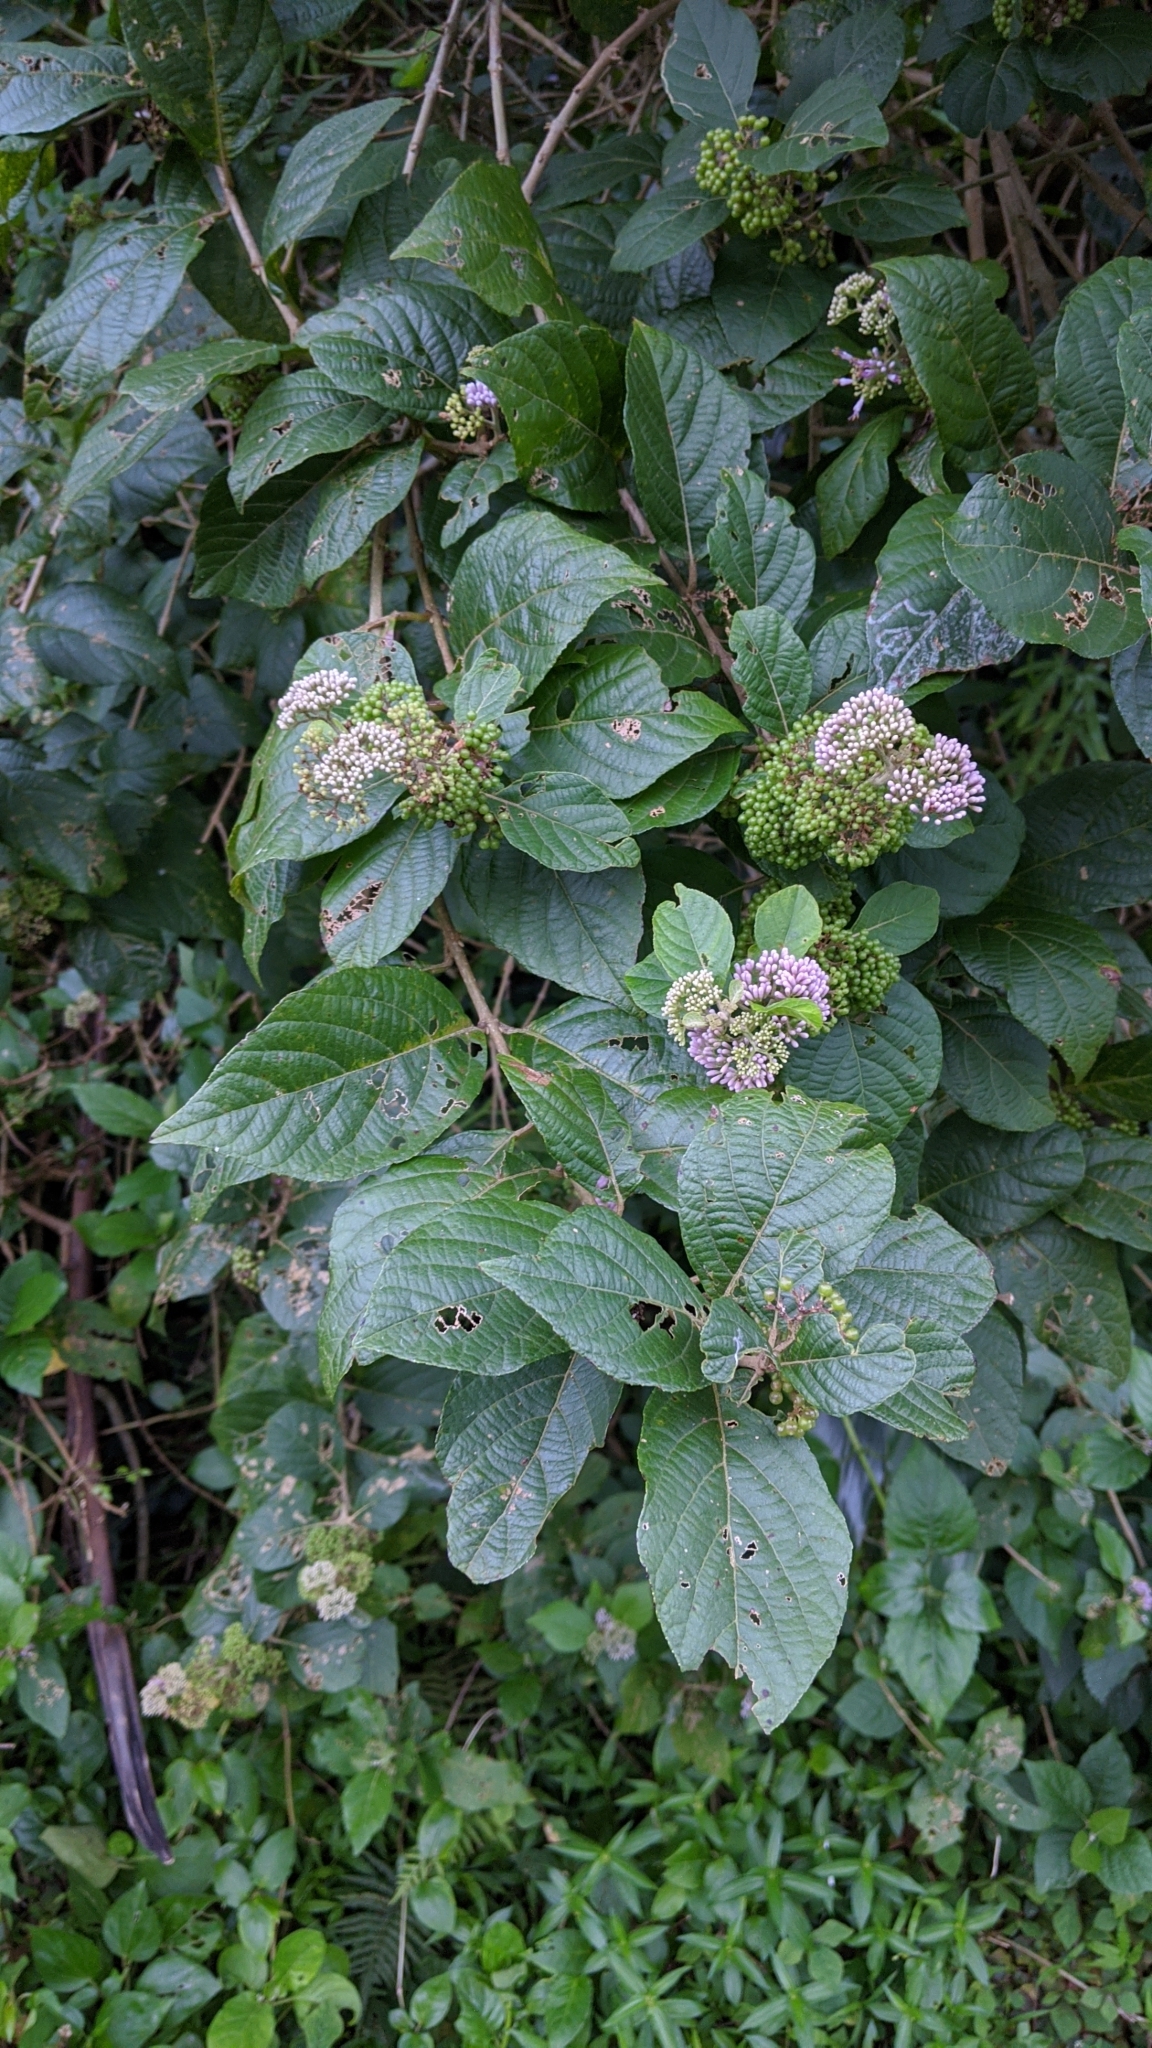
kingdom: Plantae
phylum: Tracheophyta
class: Magnoliopsida
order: Lamiales
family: Lamiaceae
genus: Callicarpa
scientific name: Callicarpa japonica
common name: Japanese beauty-berry
